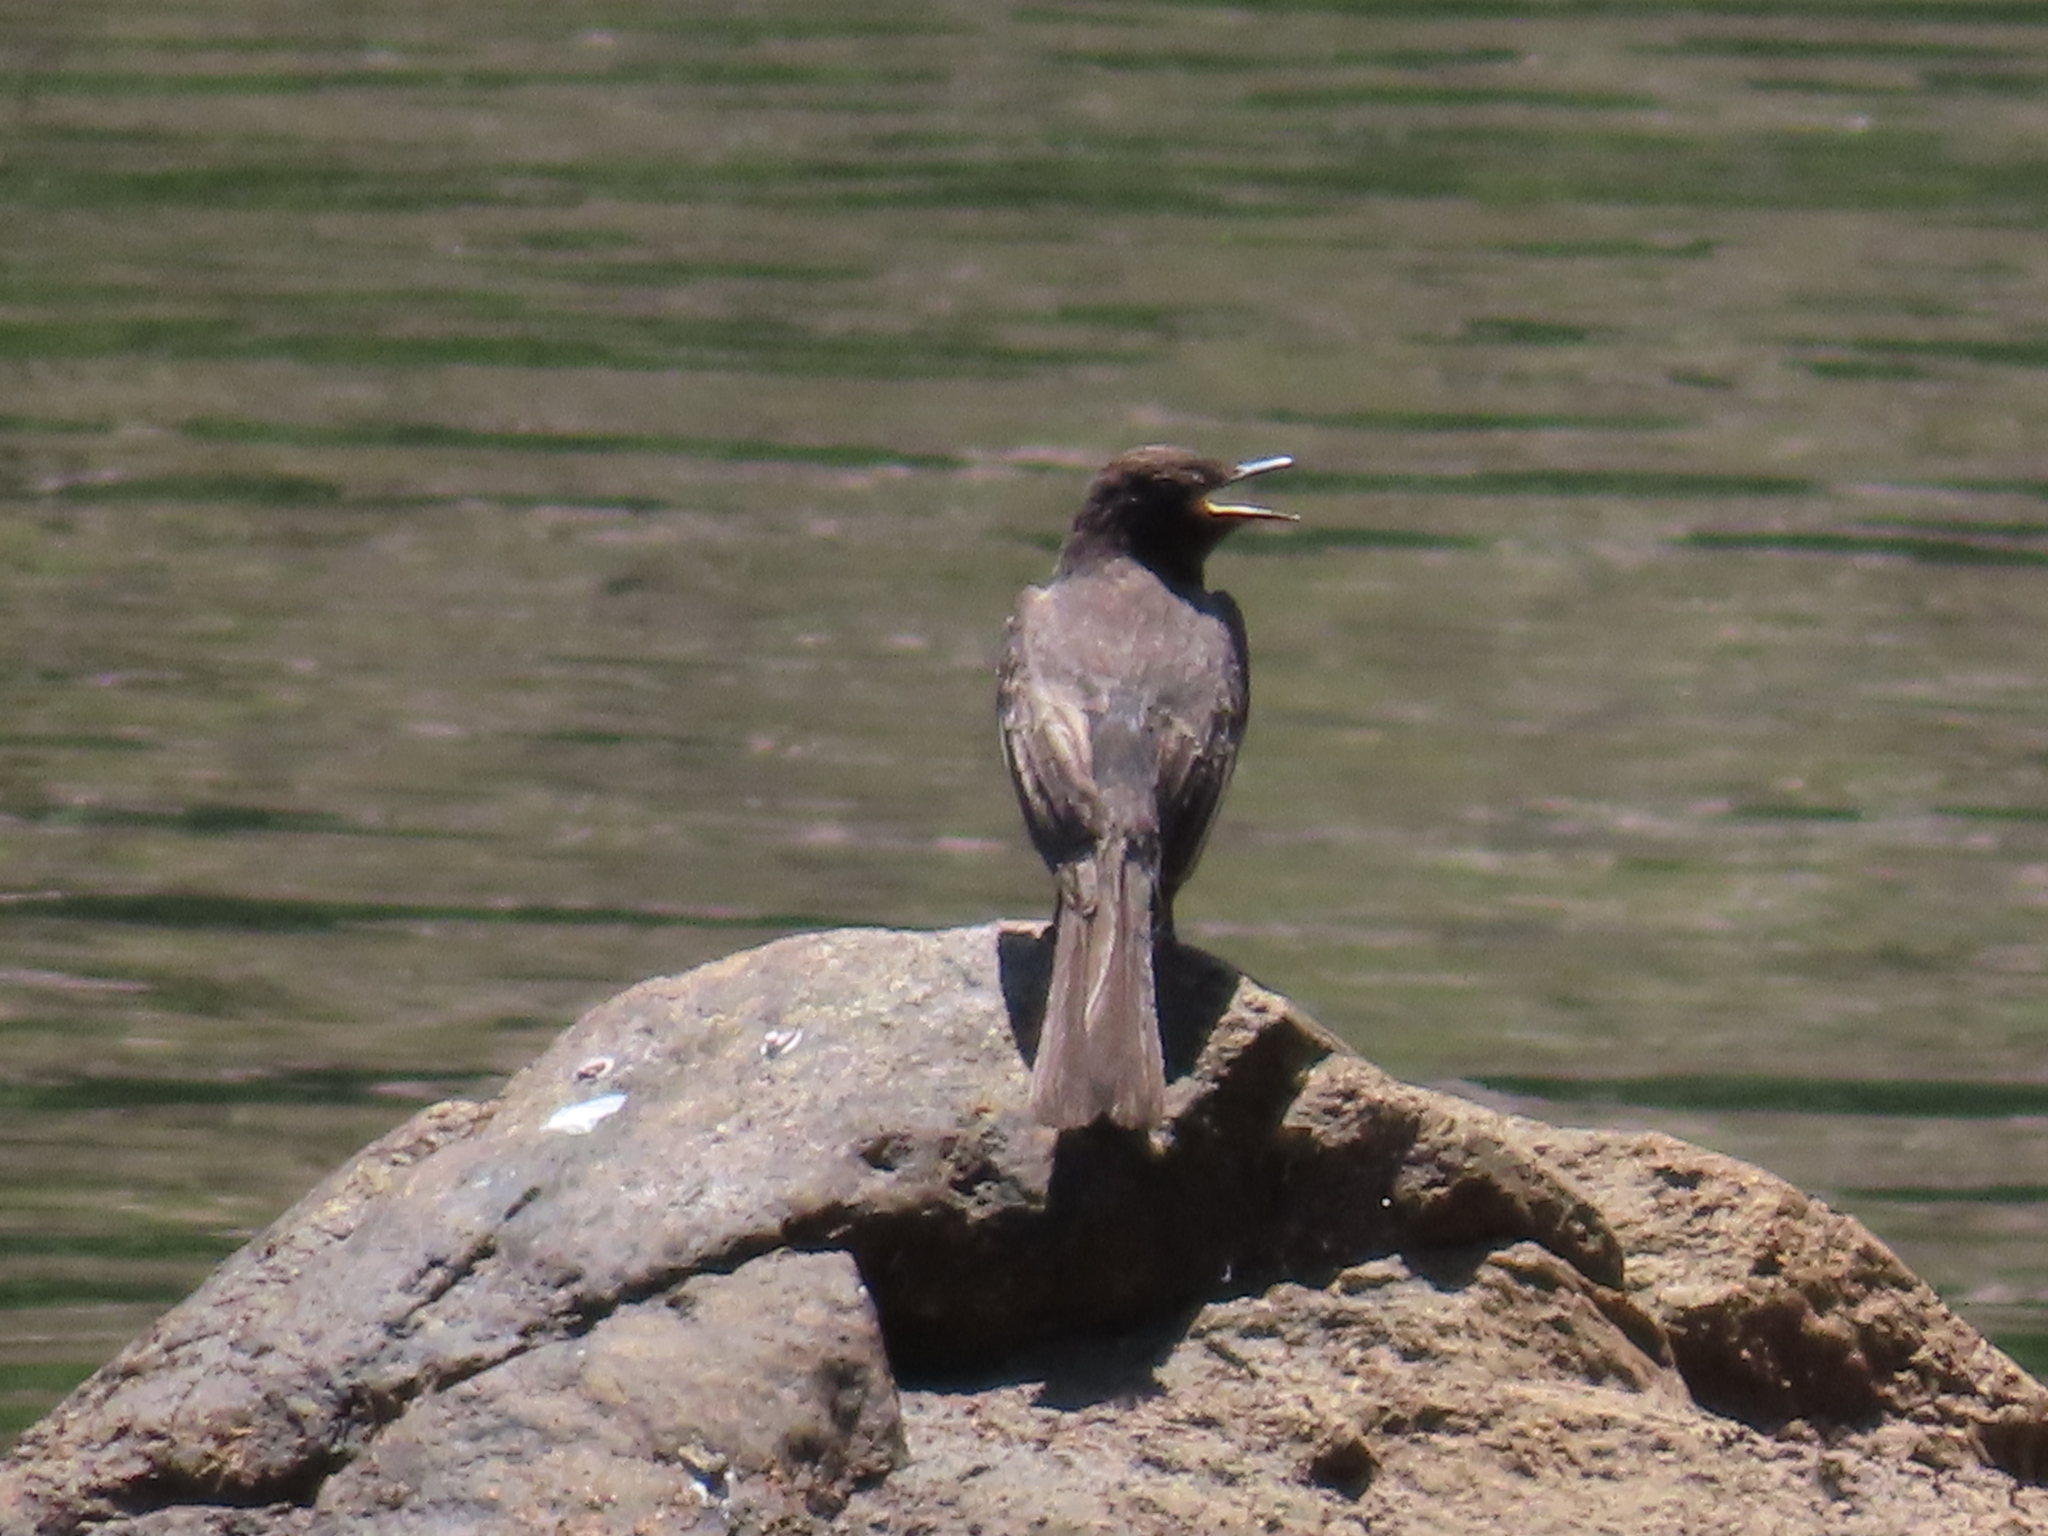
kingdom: Animalia
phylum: Chordata
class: Aves
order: Passeriformes
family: Tyrannidae
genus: Sayornis
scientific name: Sayornis nigricans
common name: Black phoebe
